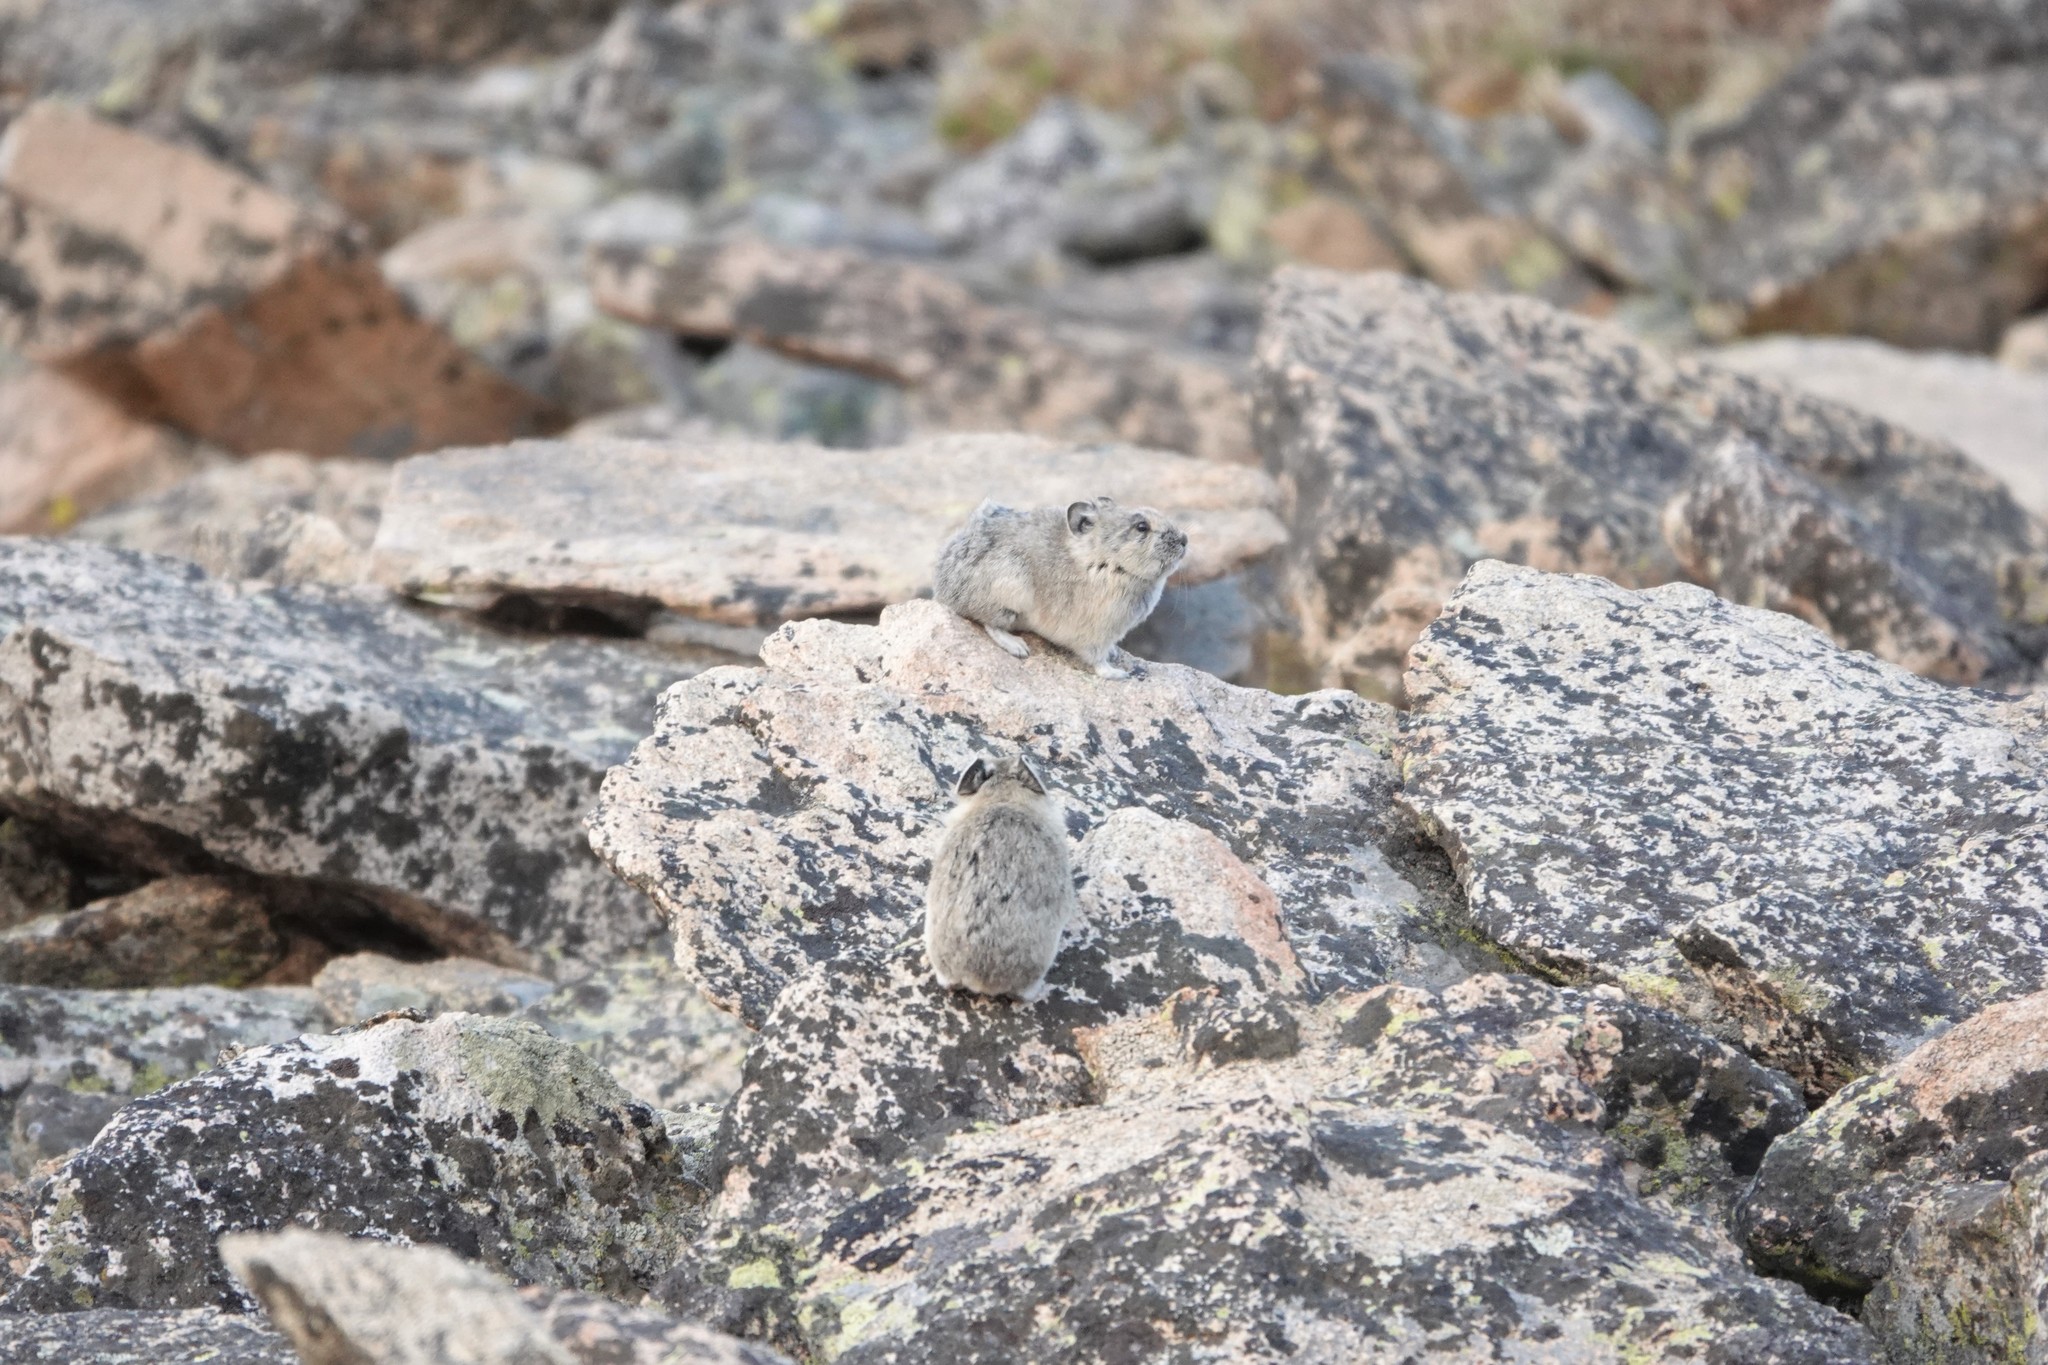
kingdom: Animalia
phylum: Chordata
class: Mammalia
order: Lagomorpha
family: Ochotonidae
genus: Ochotona
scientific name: Ochotona princeps
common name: American pika
